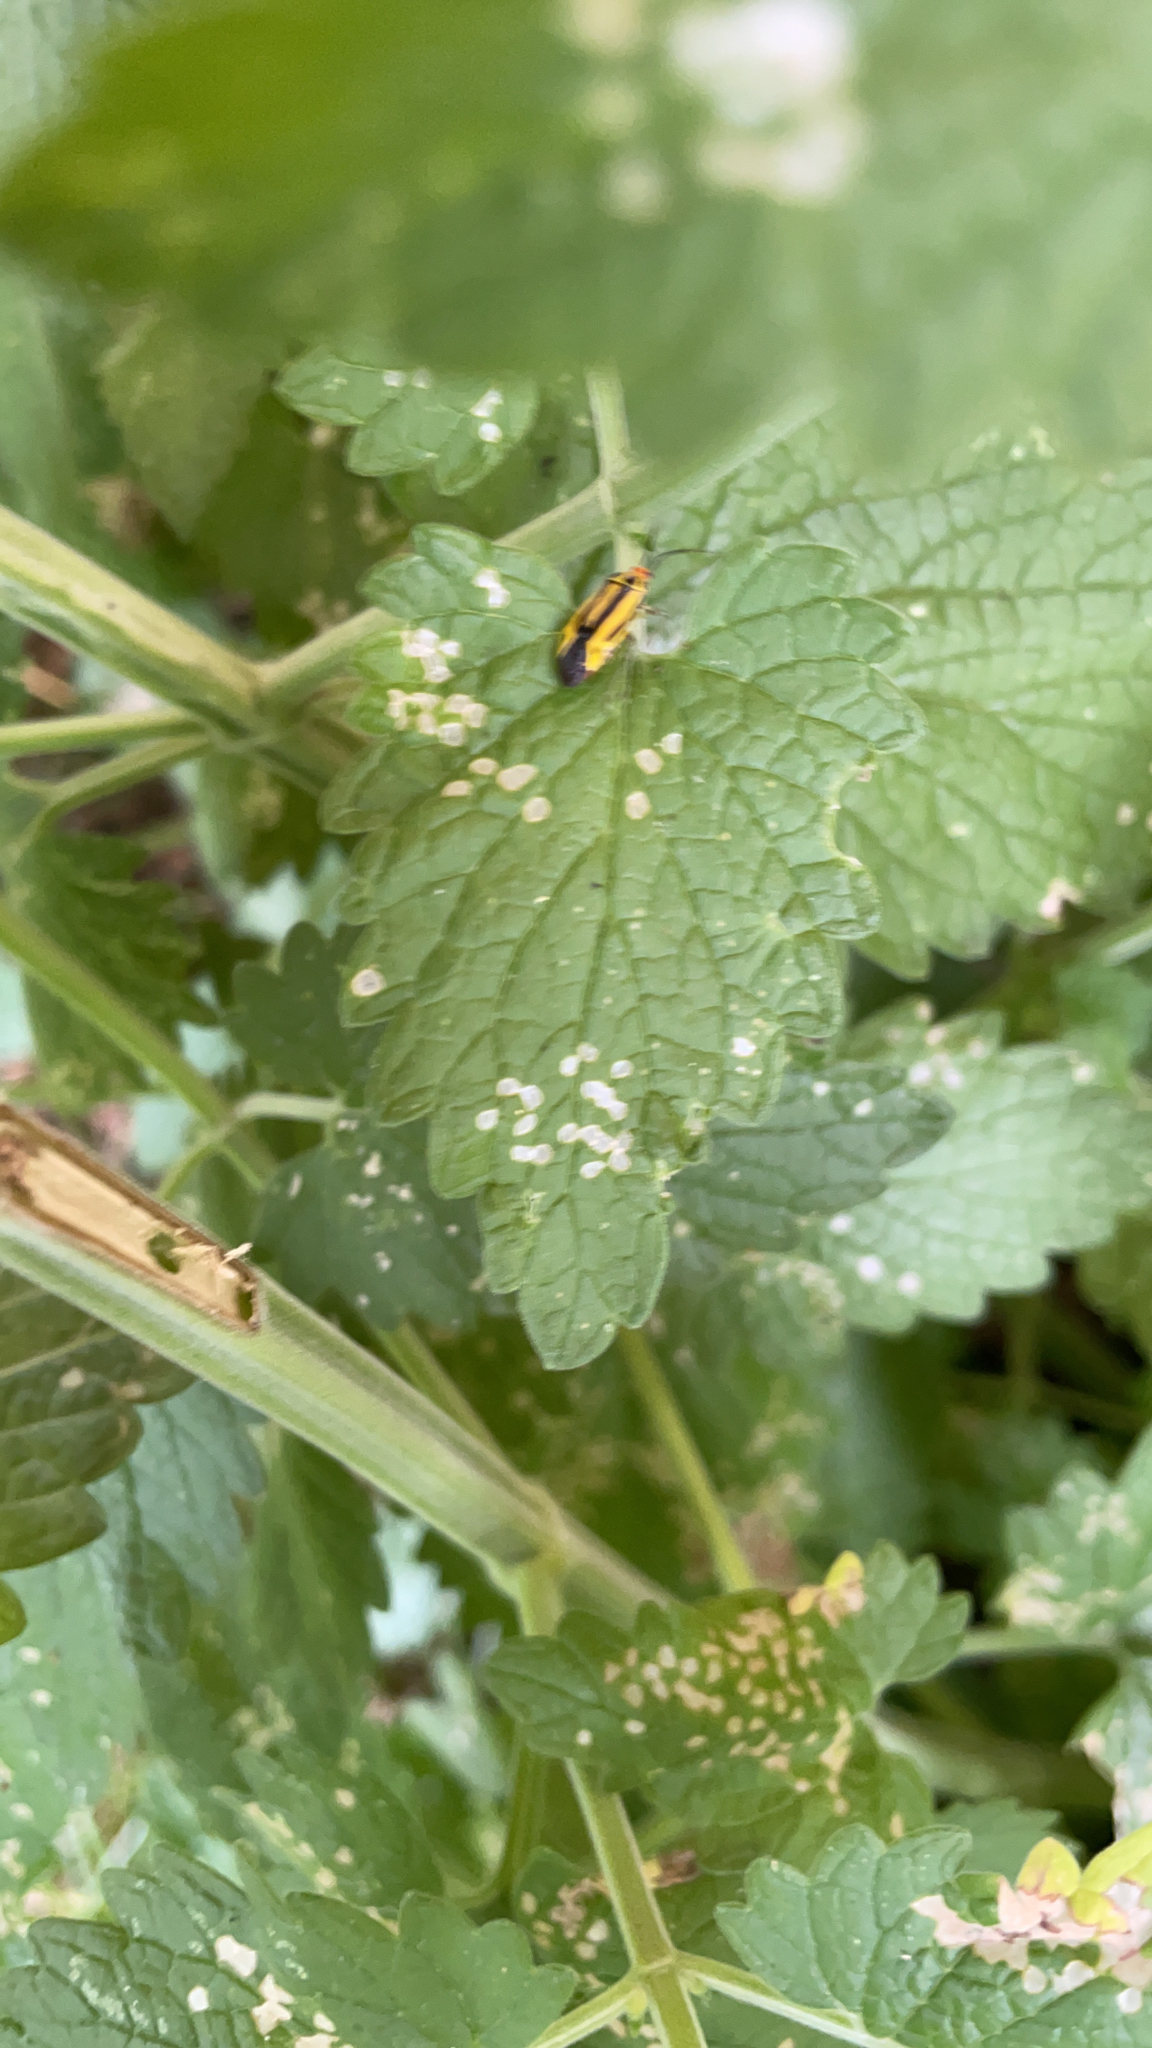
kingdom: Animalia
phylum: Arthropoda
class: Insecta
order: Hemiptera
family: Miridae
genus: Poecilocapsus
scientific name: Poecilocapsus lineatus
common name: Four-lined plant bug
